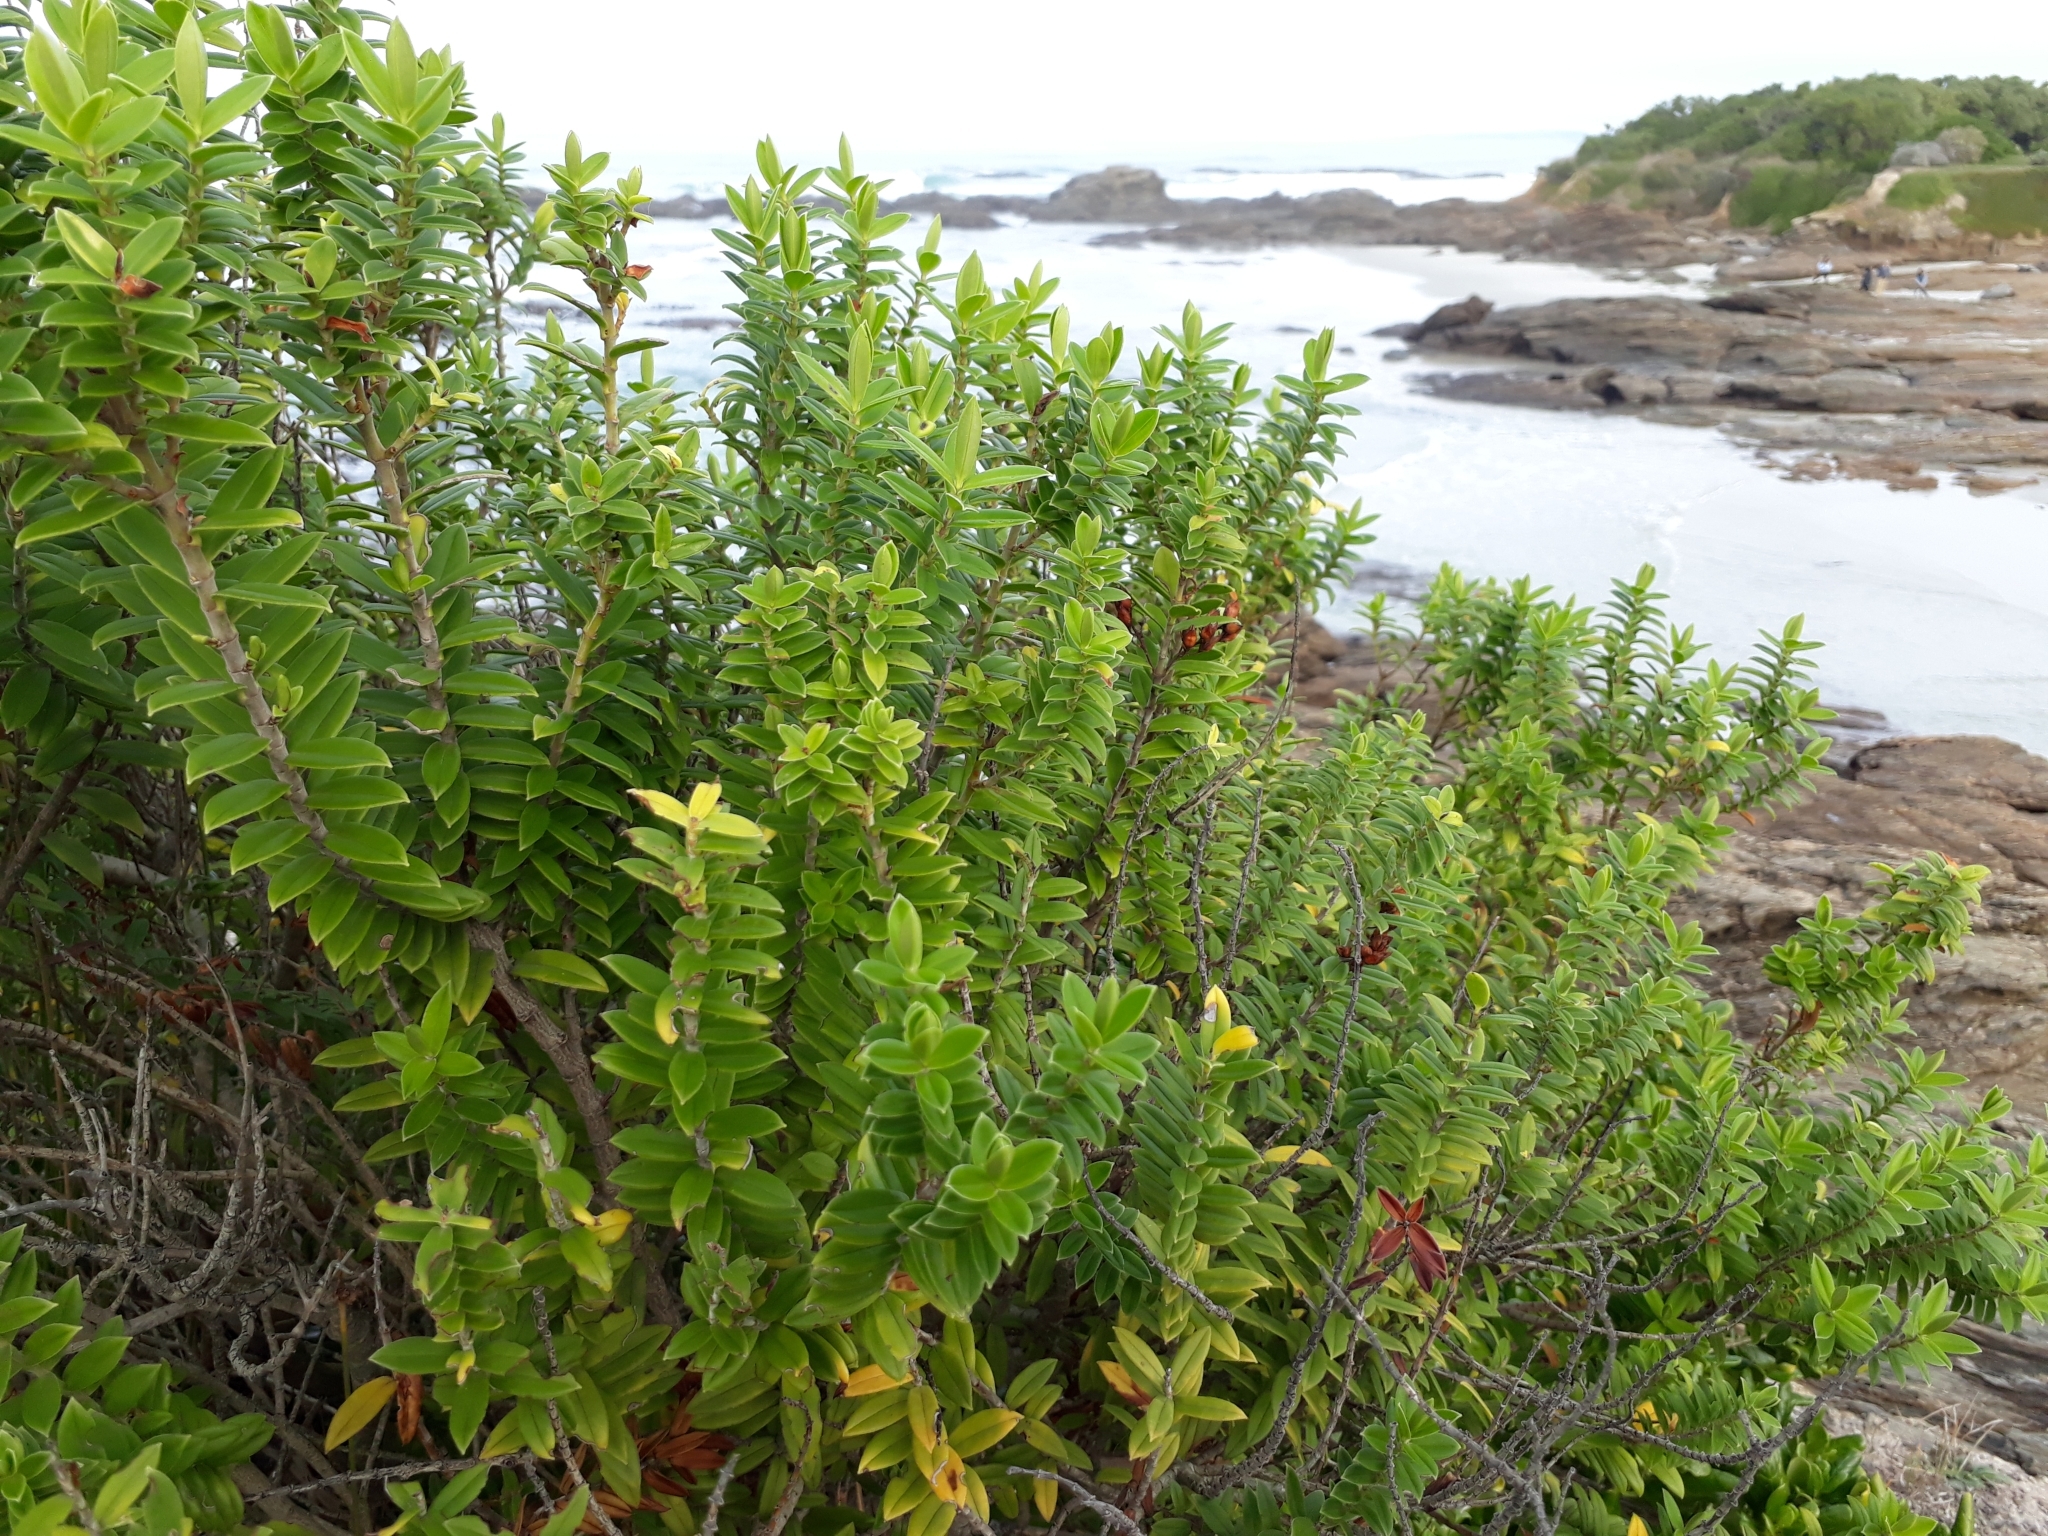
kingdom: Plantae
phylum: Tracheophyta
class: Magnoliopsida
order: Lamiales
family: Plantaginaceae
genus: Veronica
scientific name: Veronica elliptica
